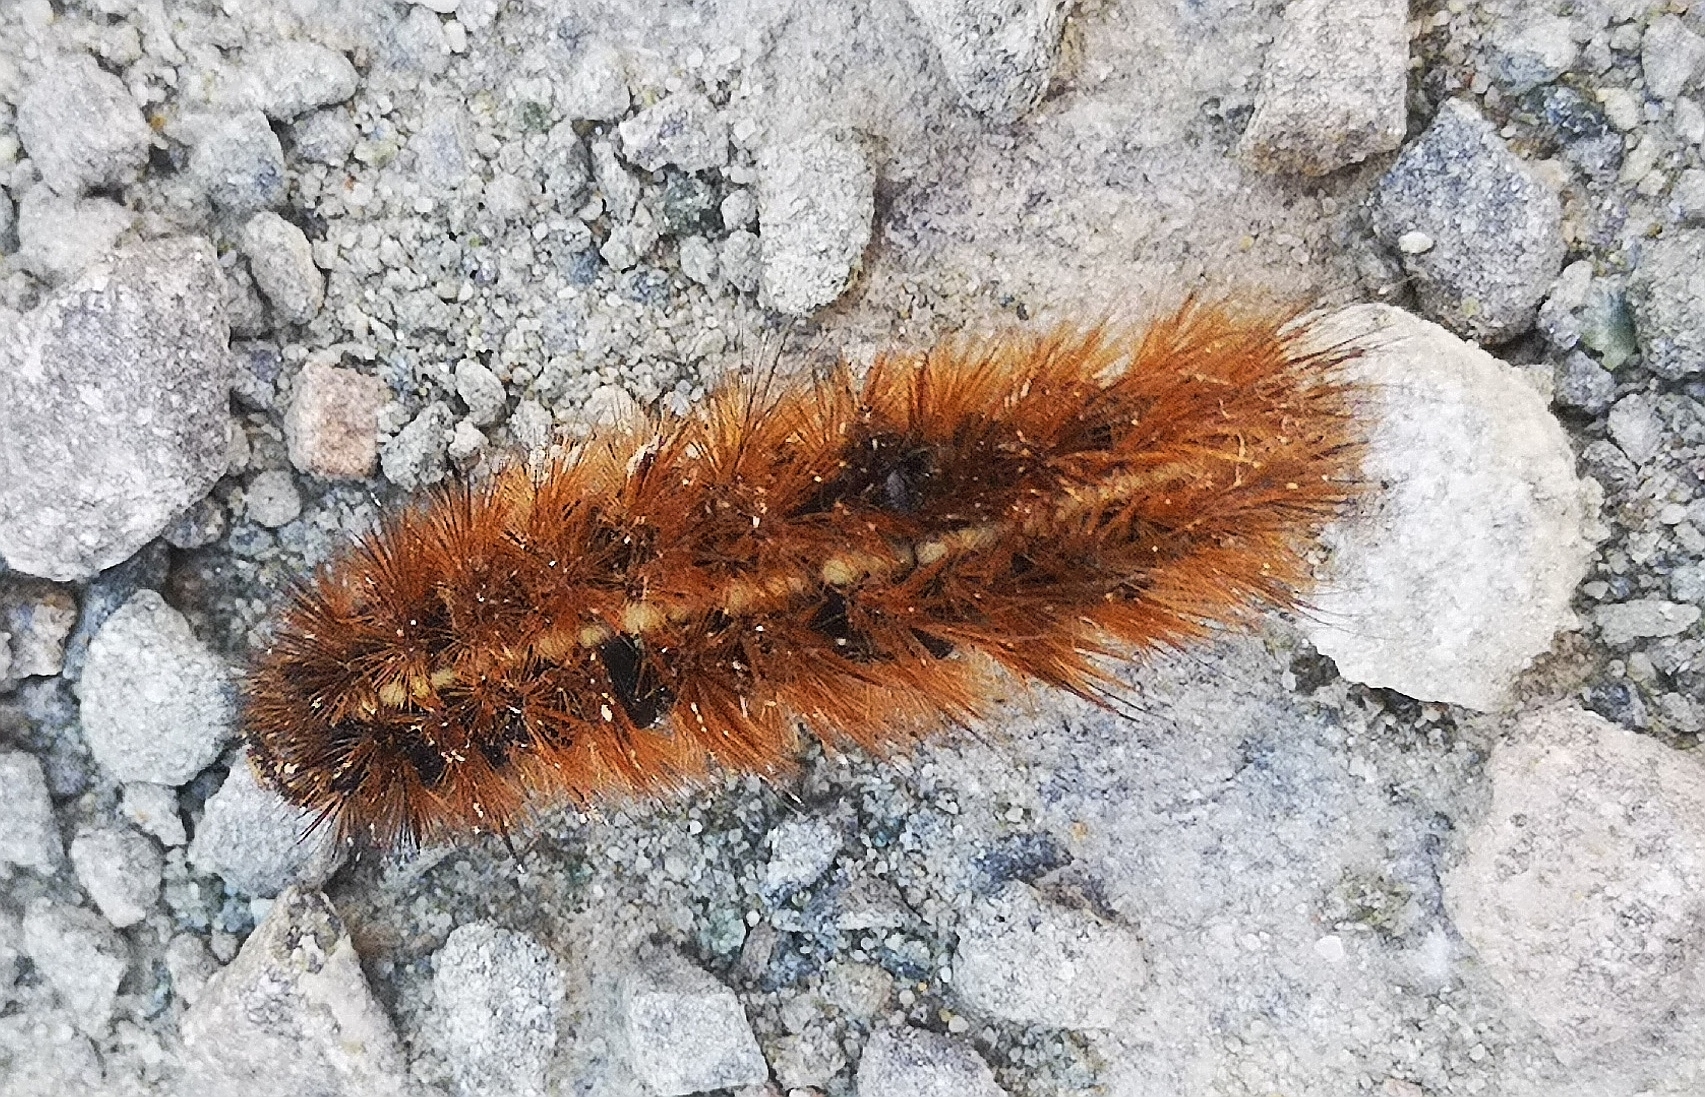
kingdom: Animalia
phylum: Arthropoda
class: Insecta
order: Lepidoptera
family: Erebidae
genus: Phragmatobia
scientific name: Phragmatobia fuliginosa
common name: Ruby tiger
